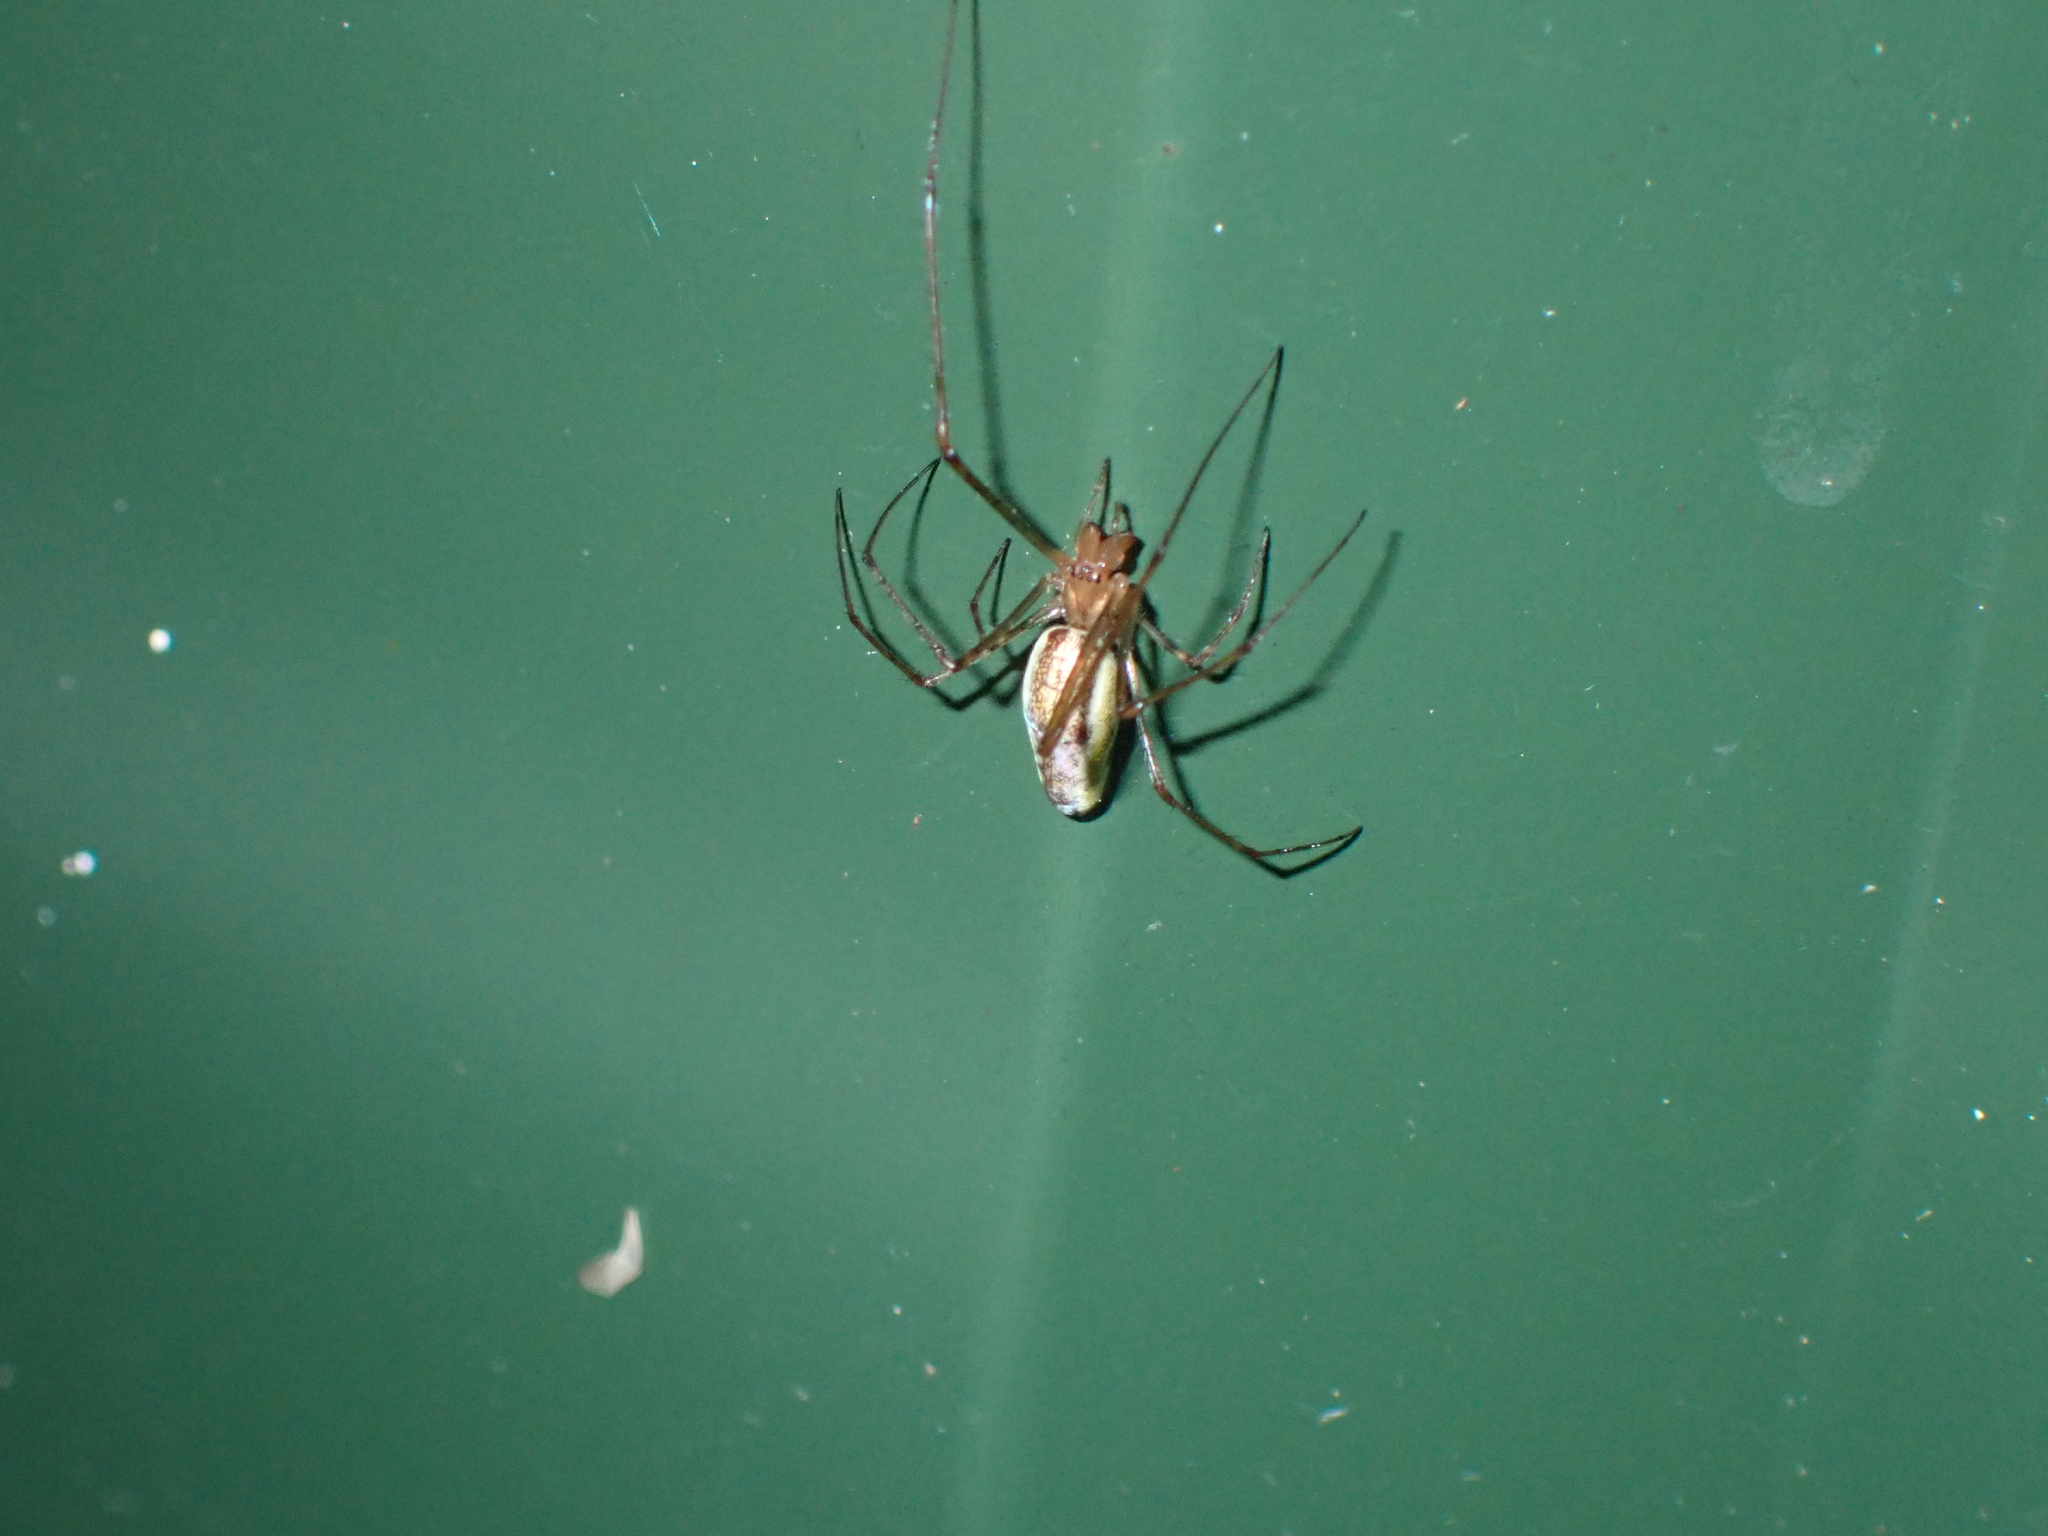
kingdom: Animalia
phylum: Arthropoda
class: Arachnida
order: Araneae
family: Tetragnathidae
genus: Tetragnatha
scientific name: Tetragnatha
